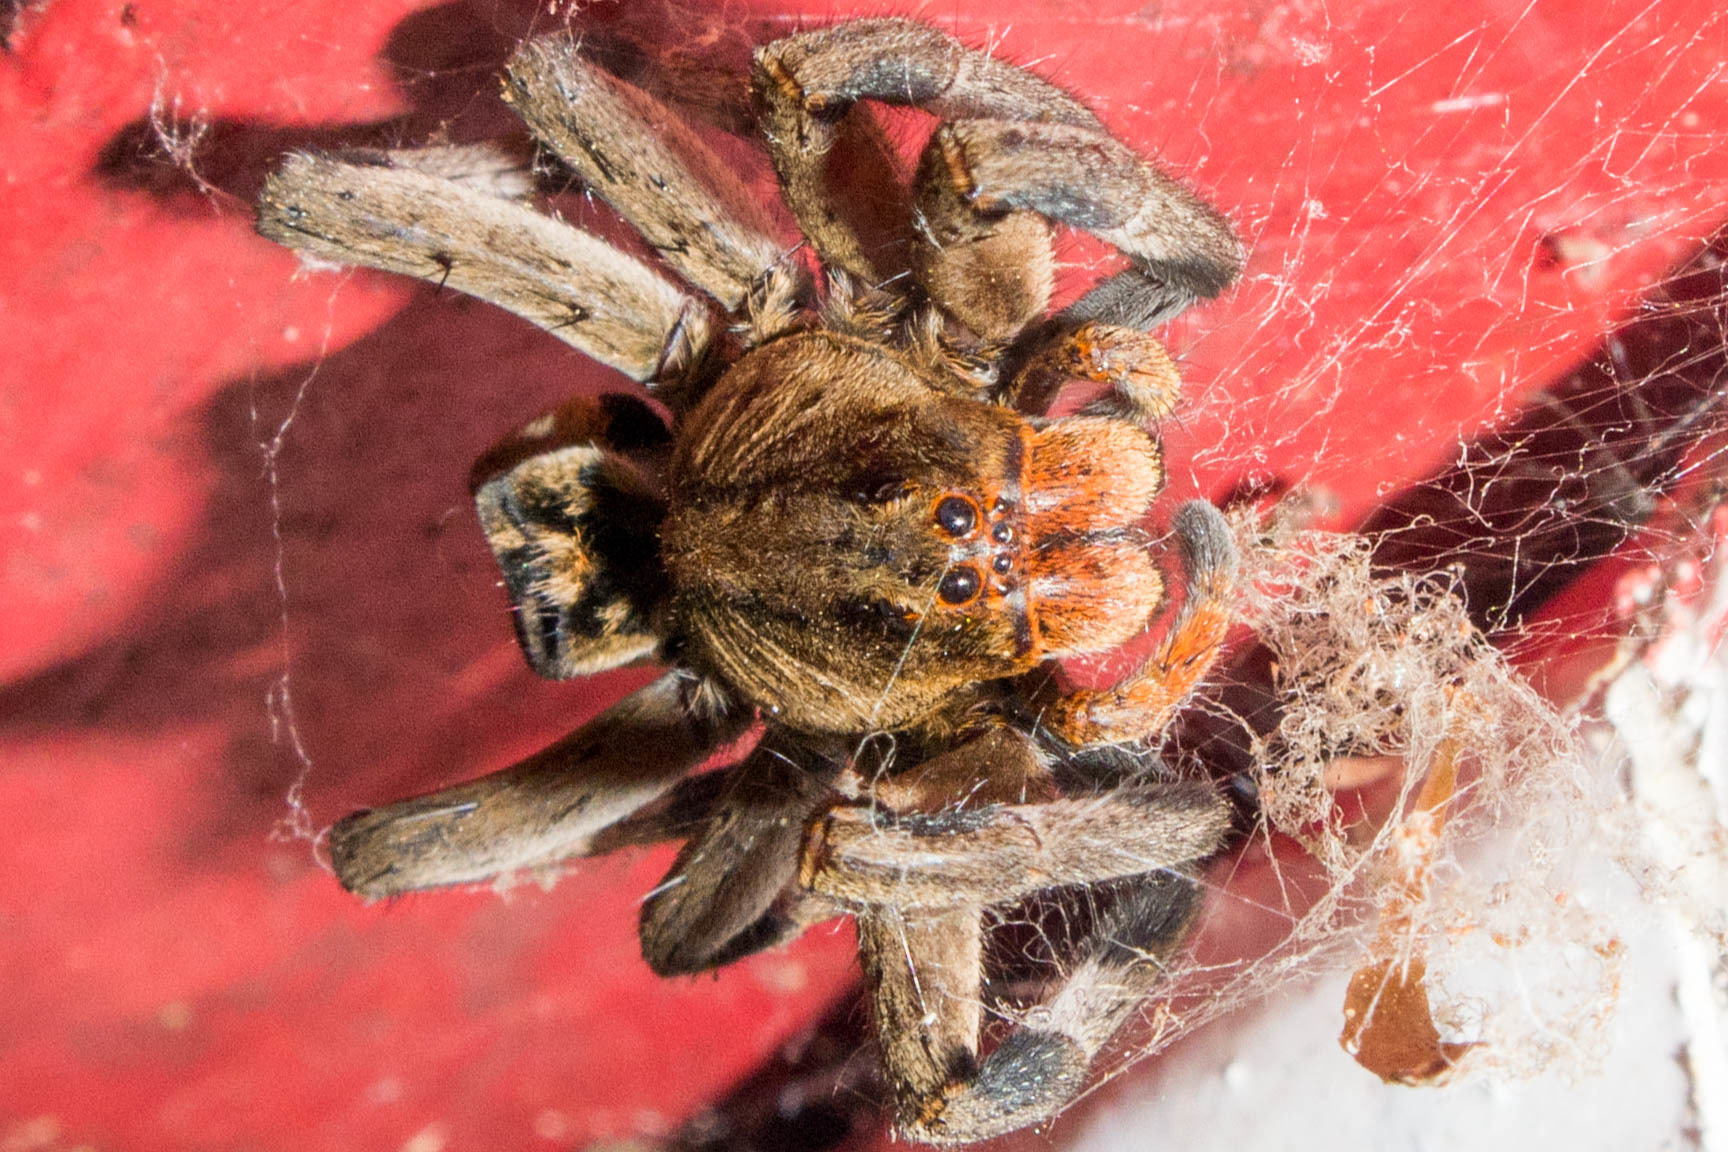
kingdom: Animalia
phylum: Arthropoda
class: Arachnida
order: Araneae
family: Lycosidae
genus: Lycosa
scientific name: Lycosa erythrognatha
